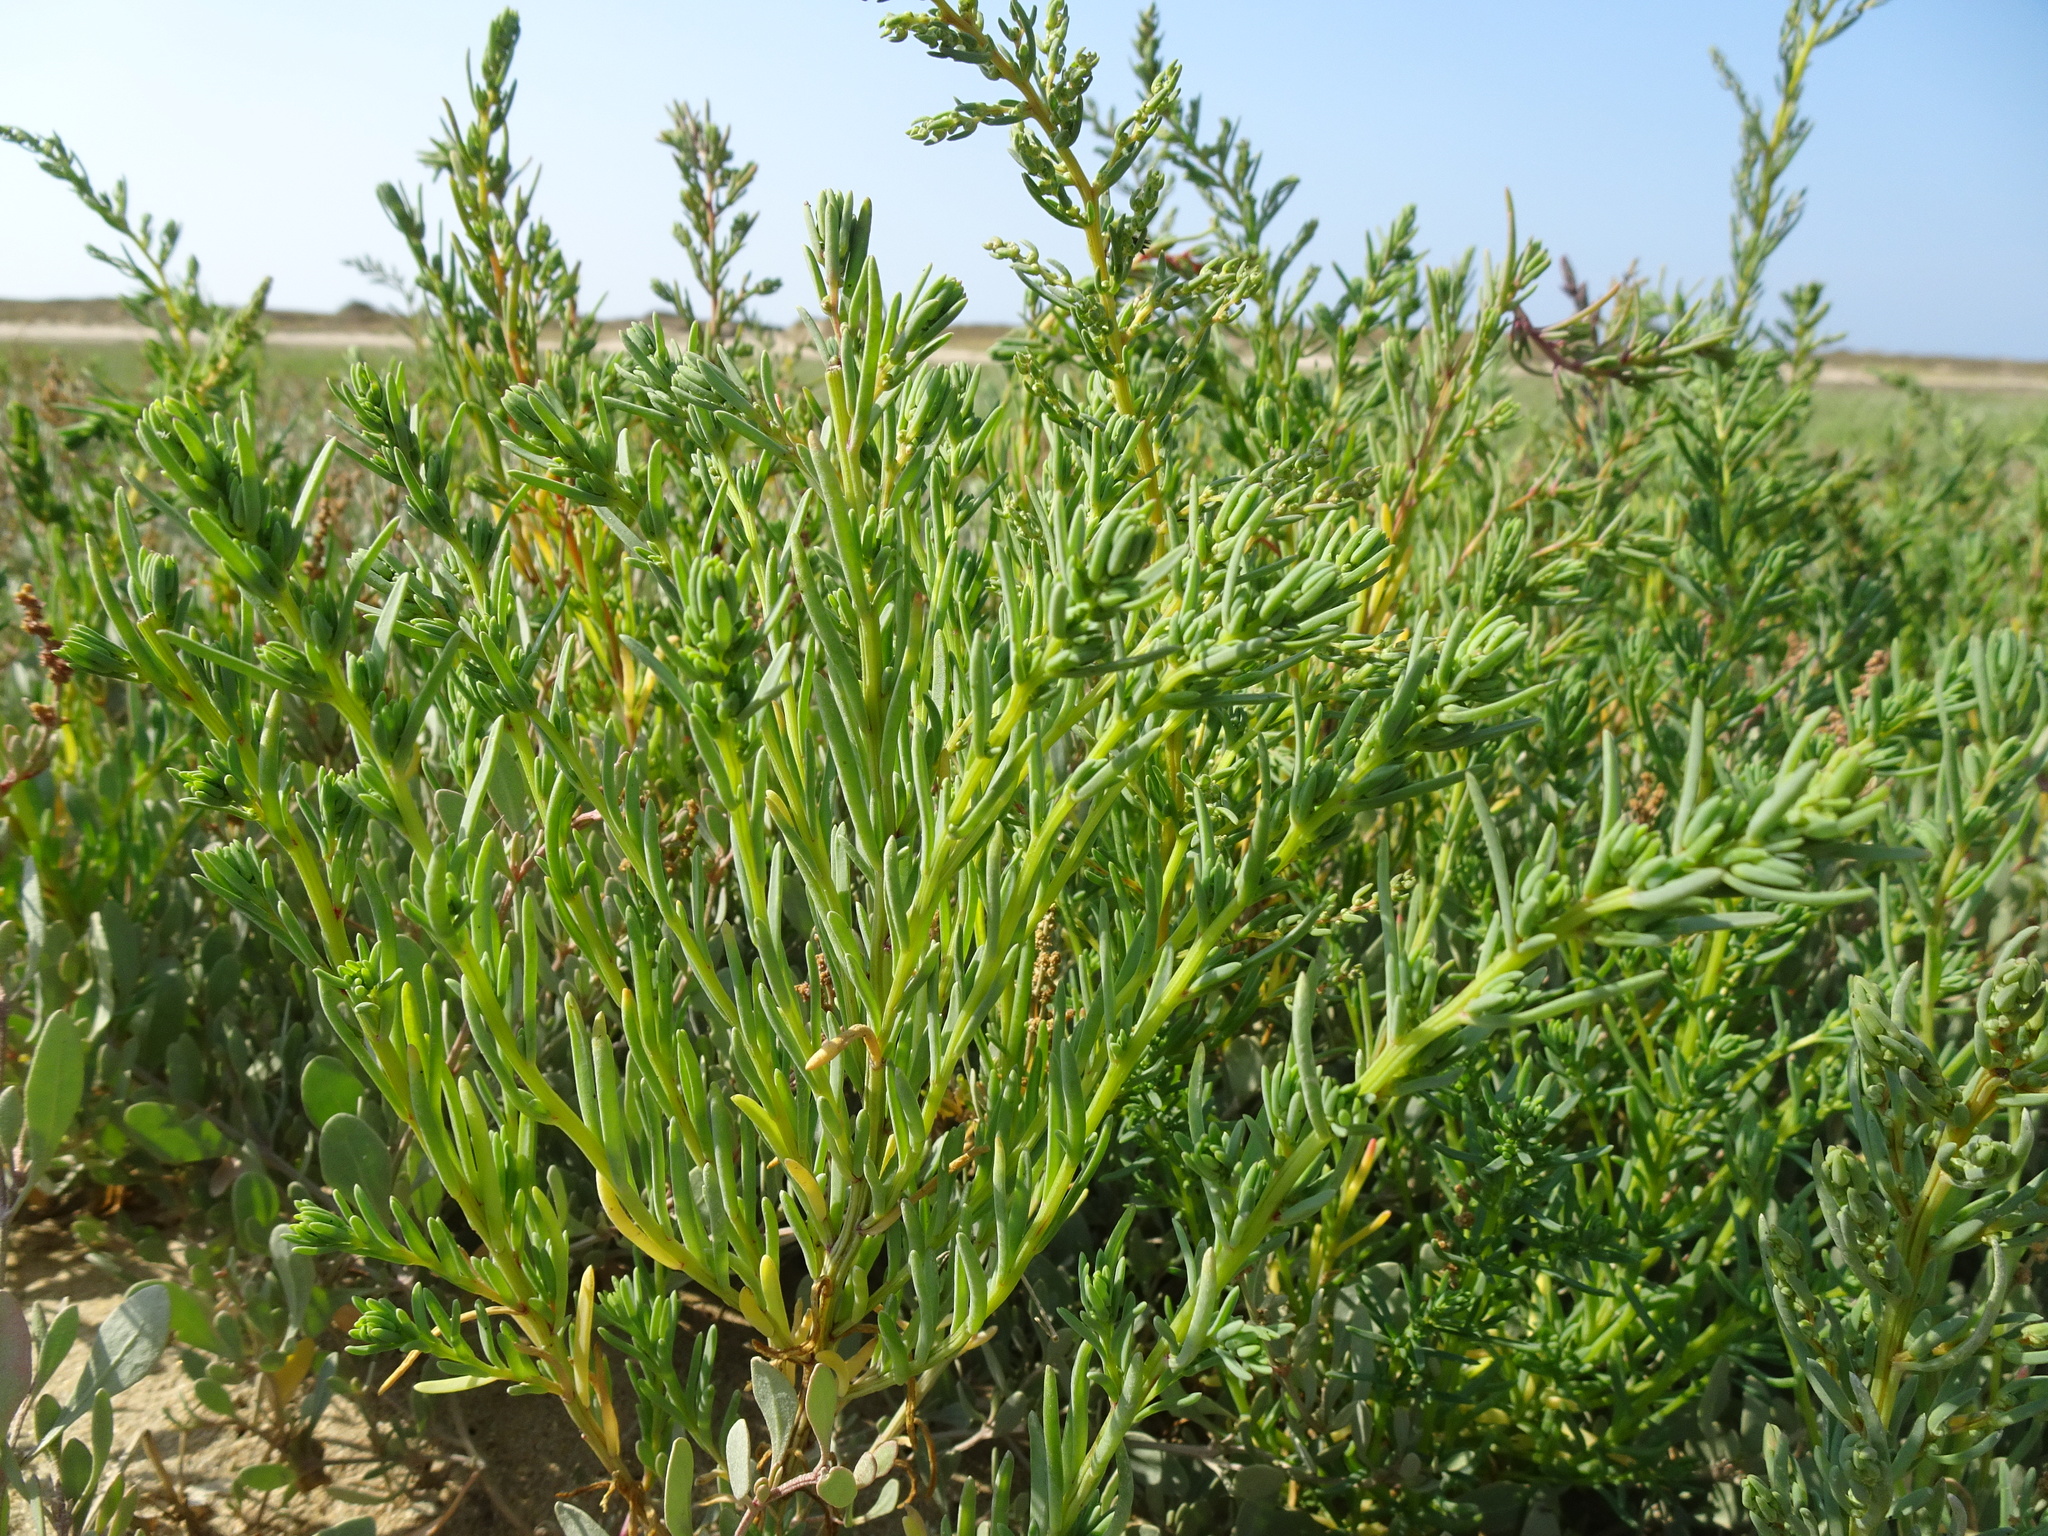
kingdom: Plantae
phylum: Tracheophyta
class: Magnoliopsida
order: Caryophyllales
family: Amaranthaceae
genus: Suaeda
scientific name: Suaeda maritima
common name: Annual sea-blite
